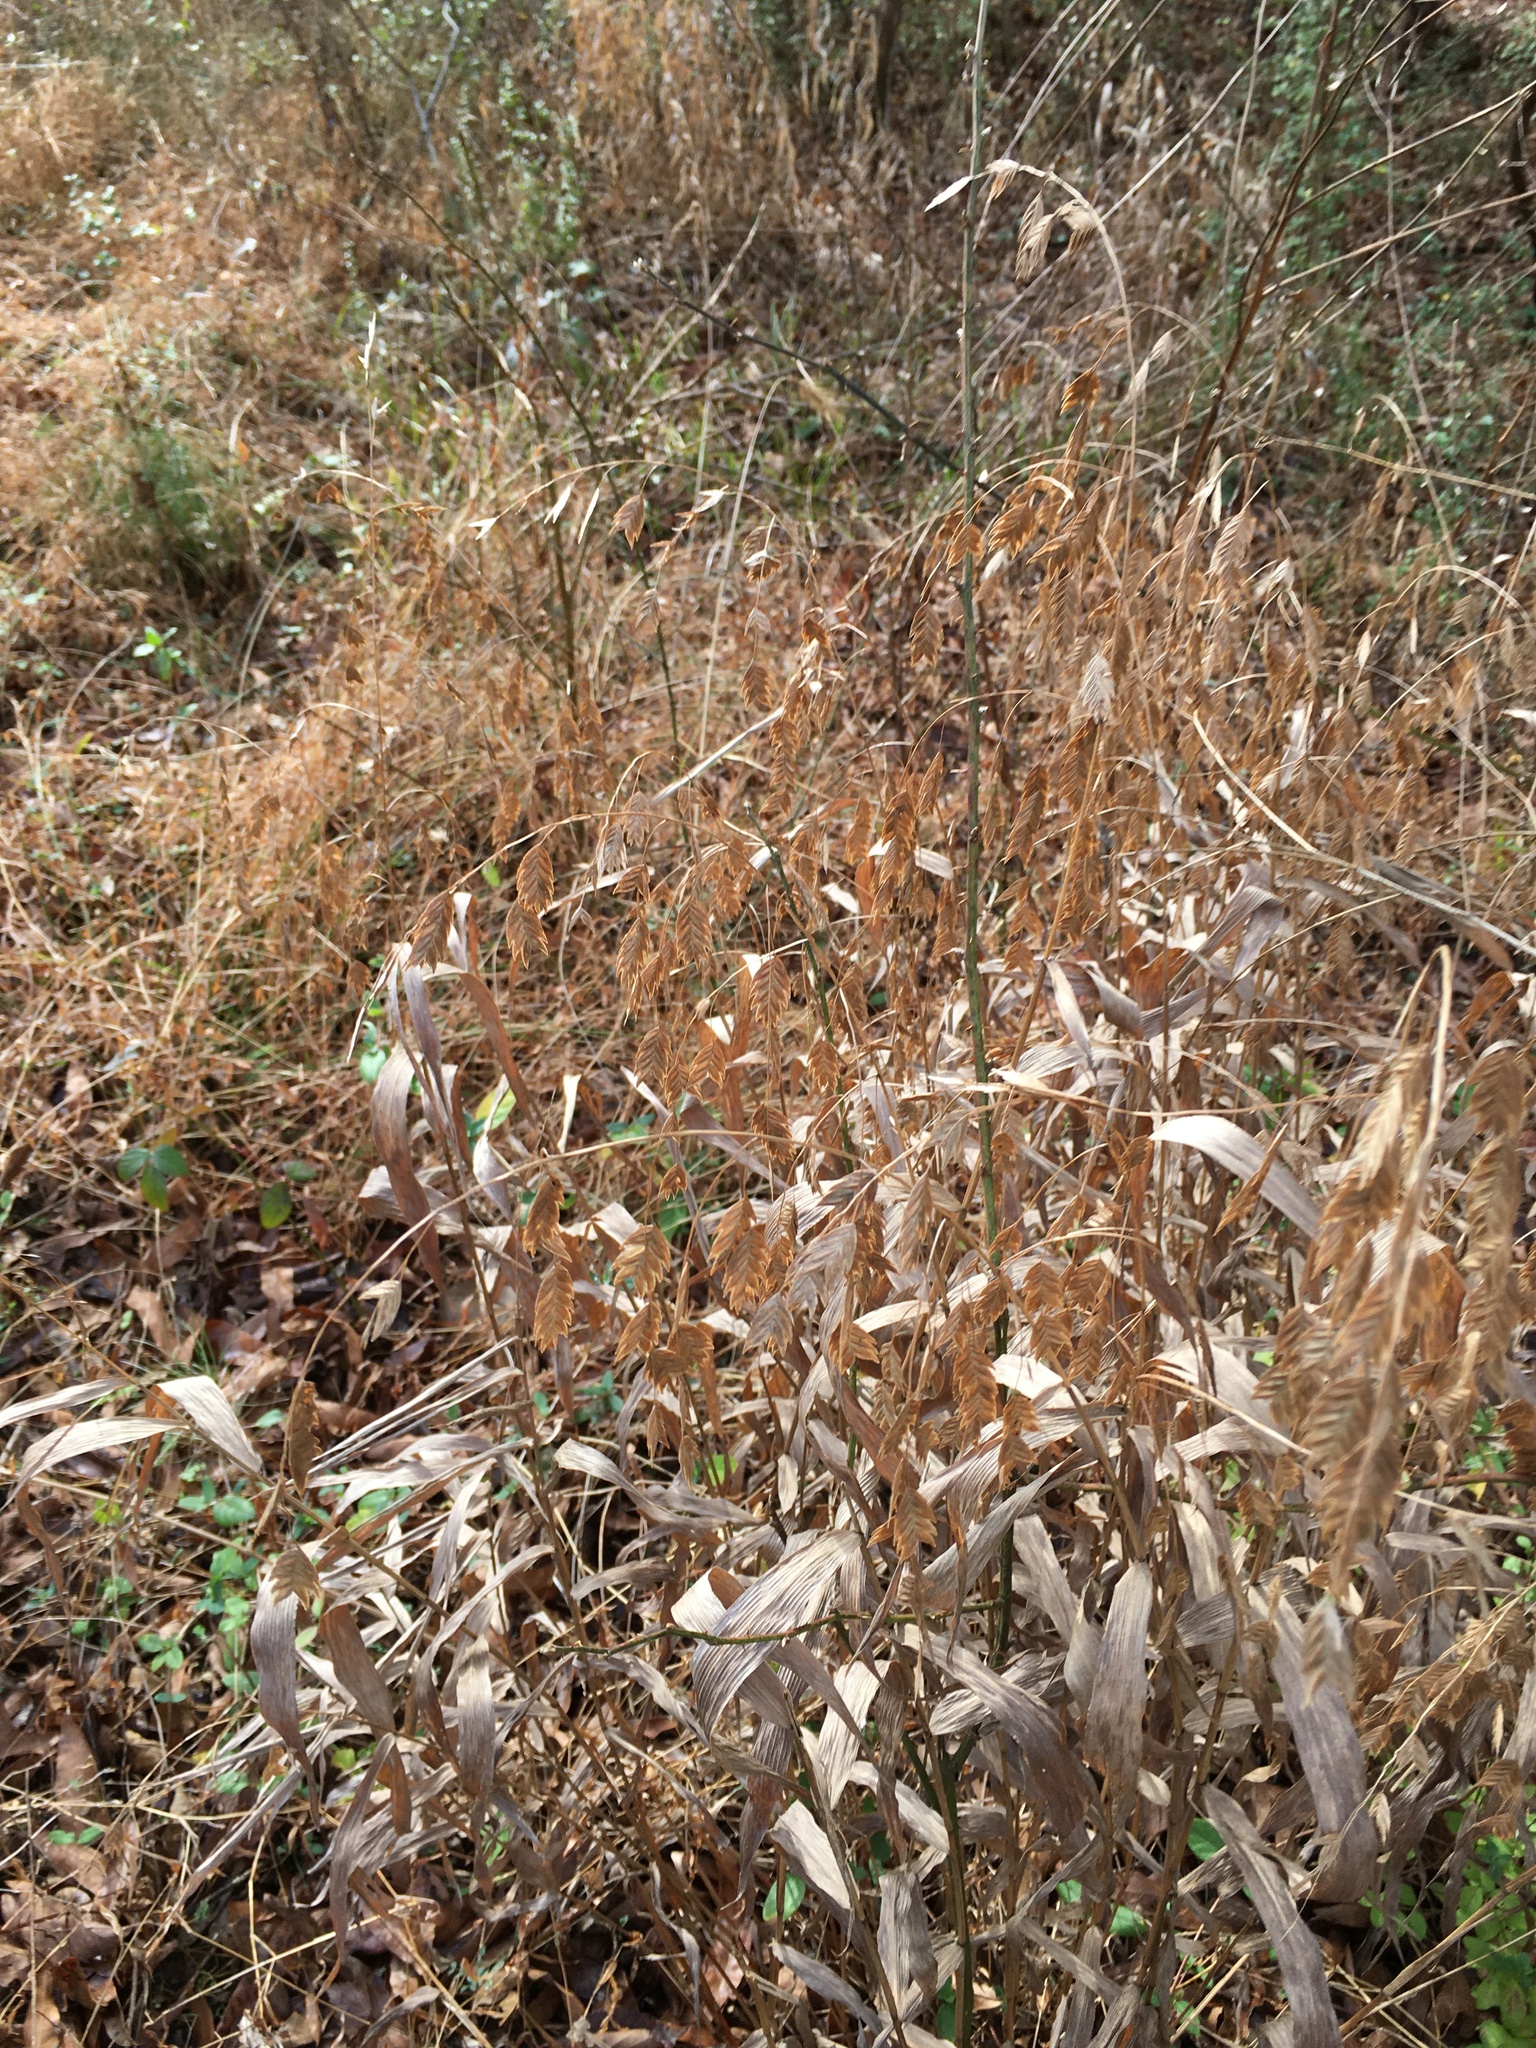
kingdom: Plantae
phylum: Tracheophyta
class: Liliopsida
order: Poales
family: Poaceae
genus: Chasmanthium
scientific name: Chasmanthium latifolium
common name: Broad-leaved chasmanthium
